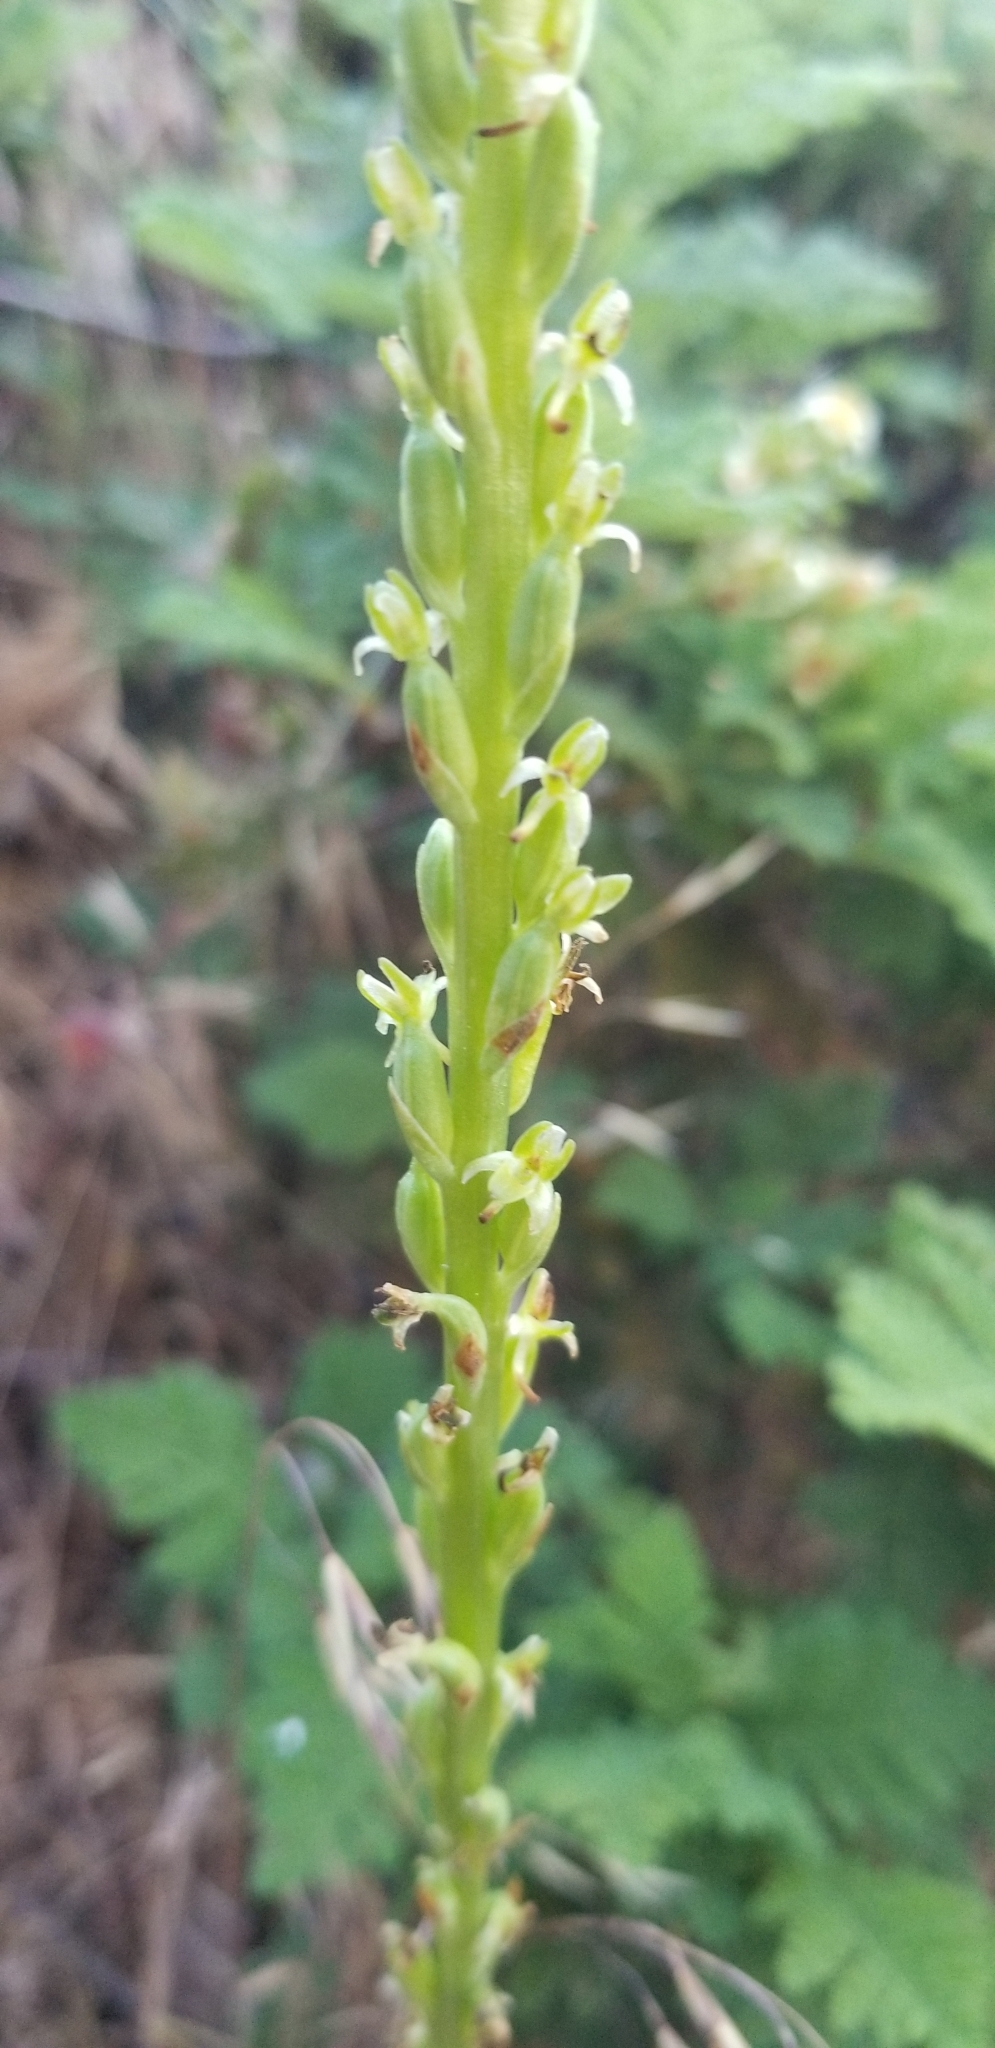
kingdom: Plantae
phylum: Tracheophyta
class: Liliopsida
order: Asparagales
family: Orchidaceae
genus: Platanthera
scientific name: Platanthera unalascensis
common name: Alaska bog orchid
